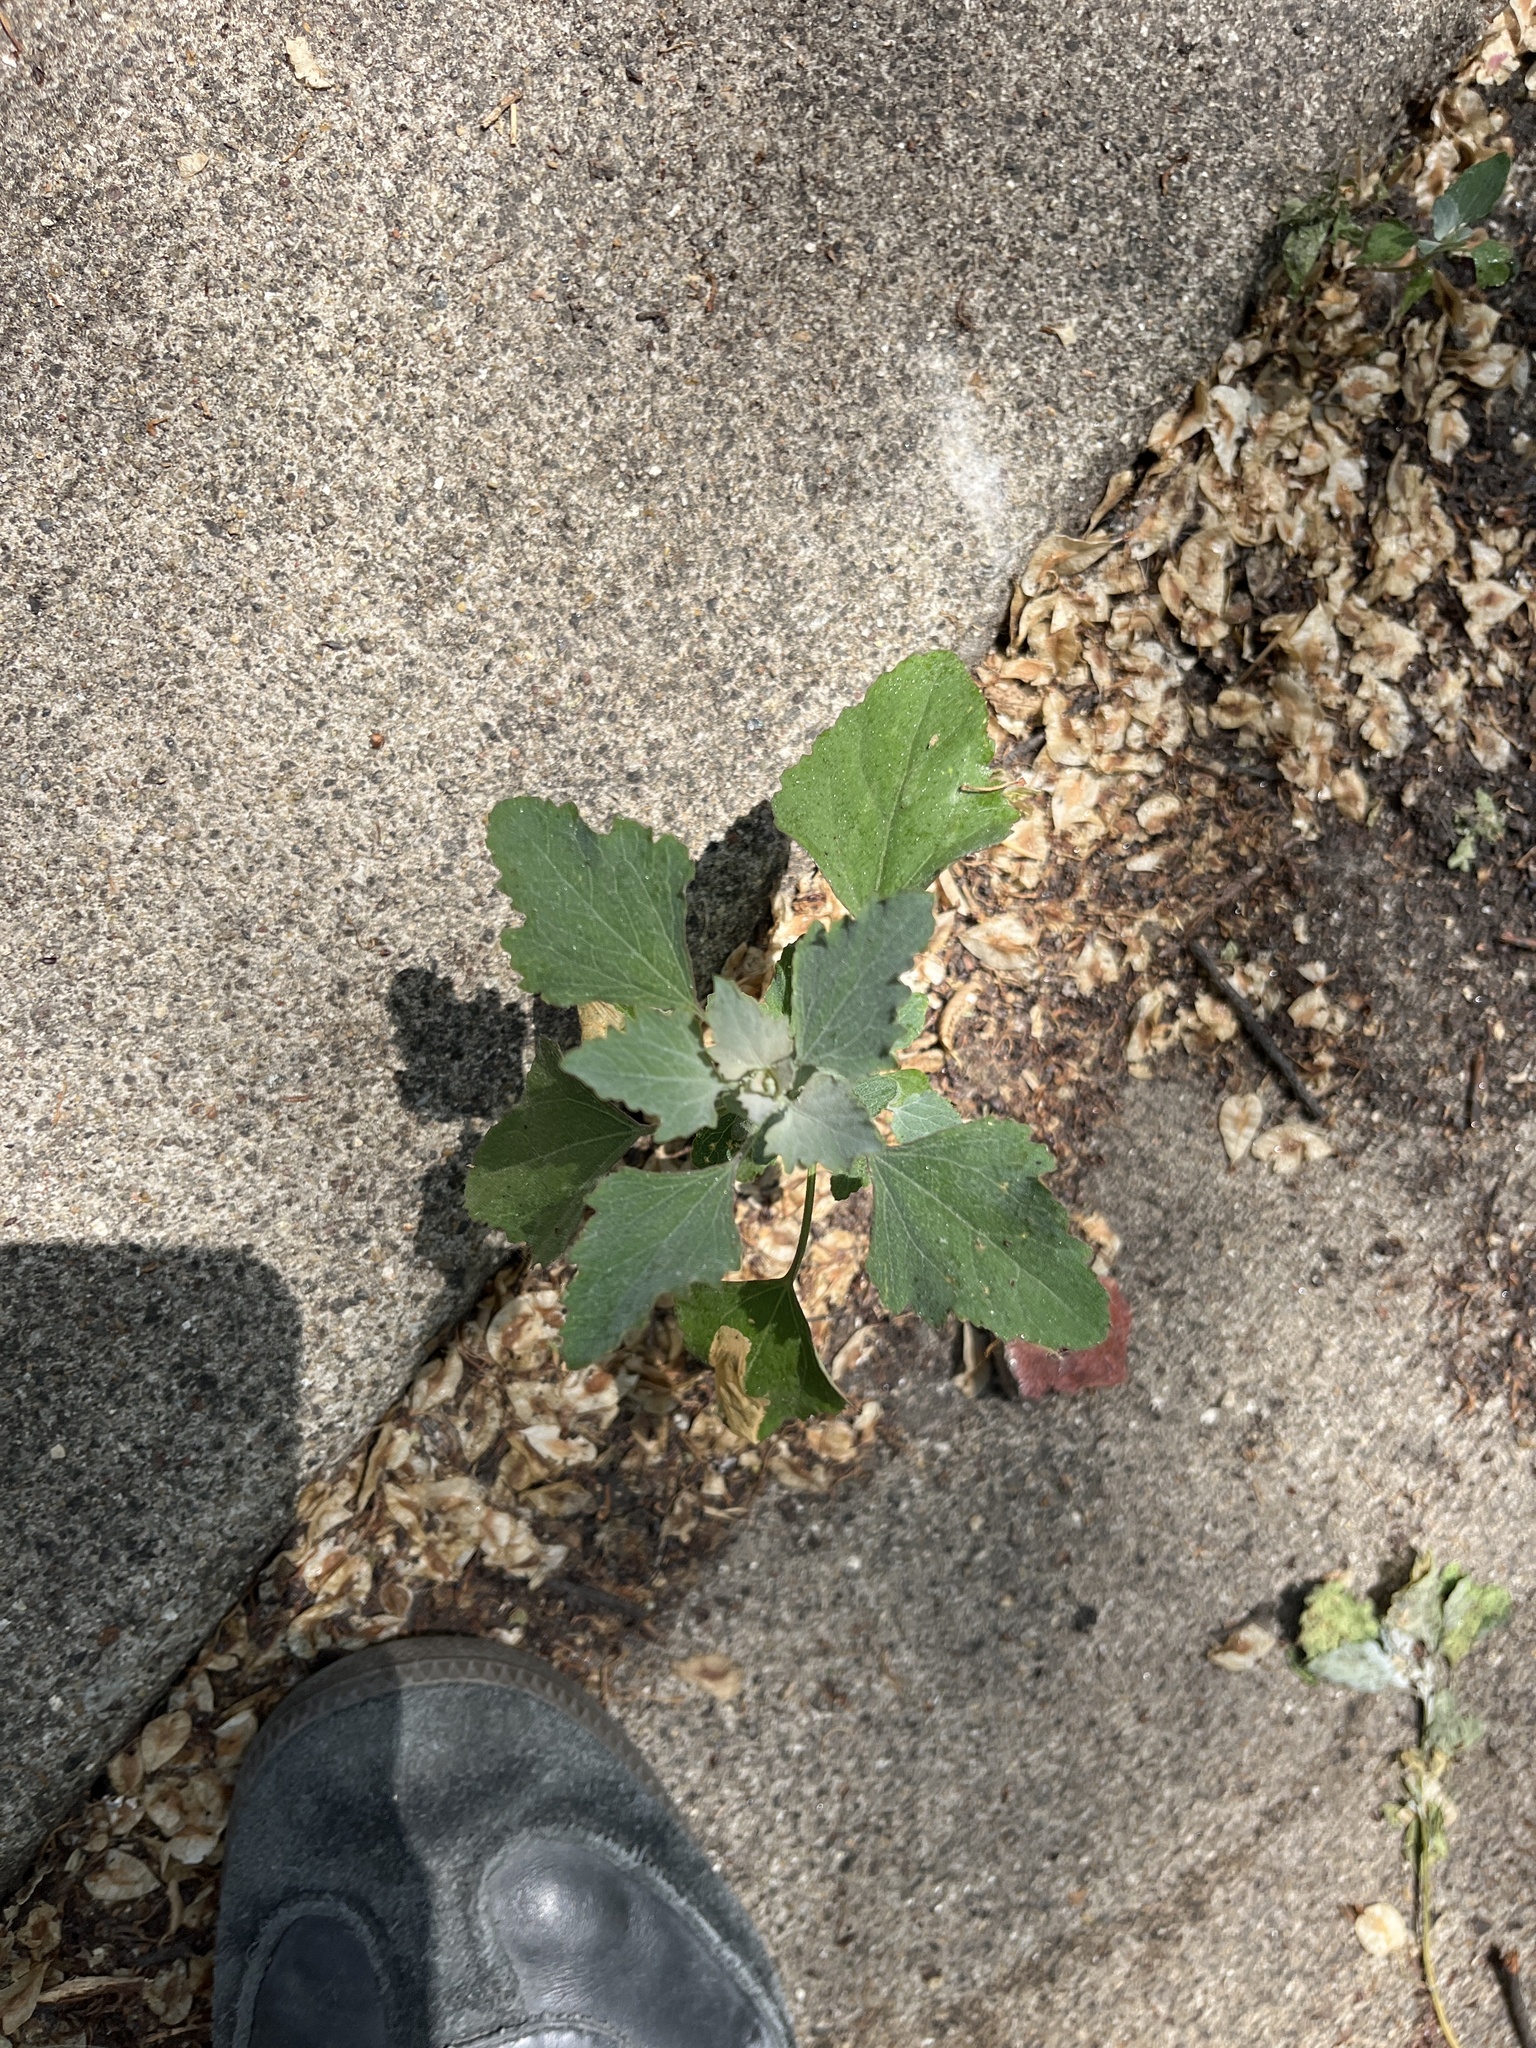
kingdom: Plantae
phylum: Tracheophyta
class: Magnoliopsida
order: Caryophyllales
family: Amaranthaceae
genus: Chenopodium
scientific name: Chenopodium album
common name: Fat-hen
